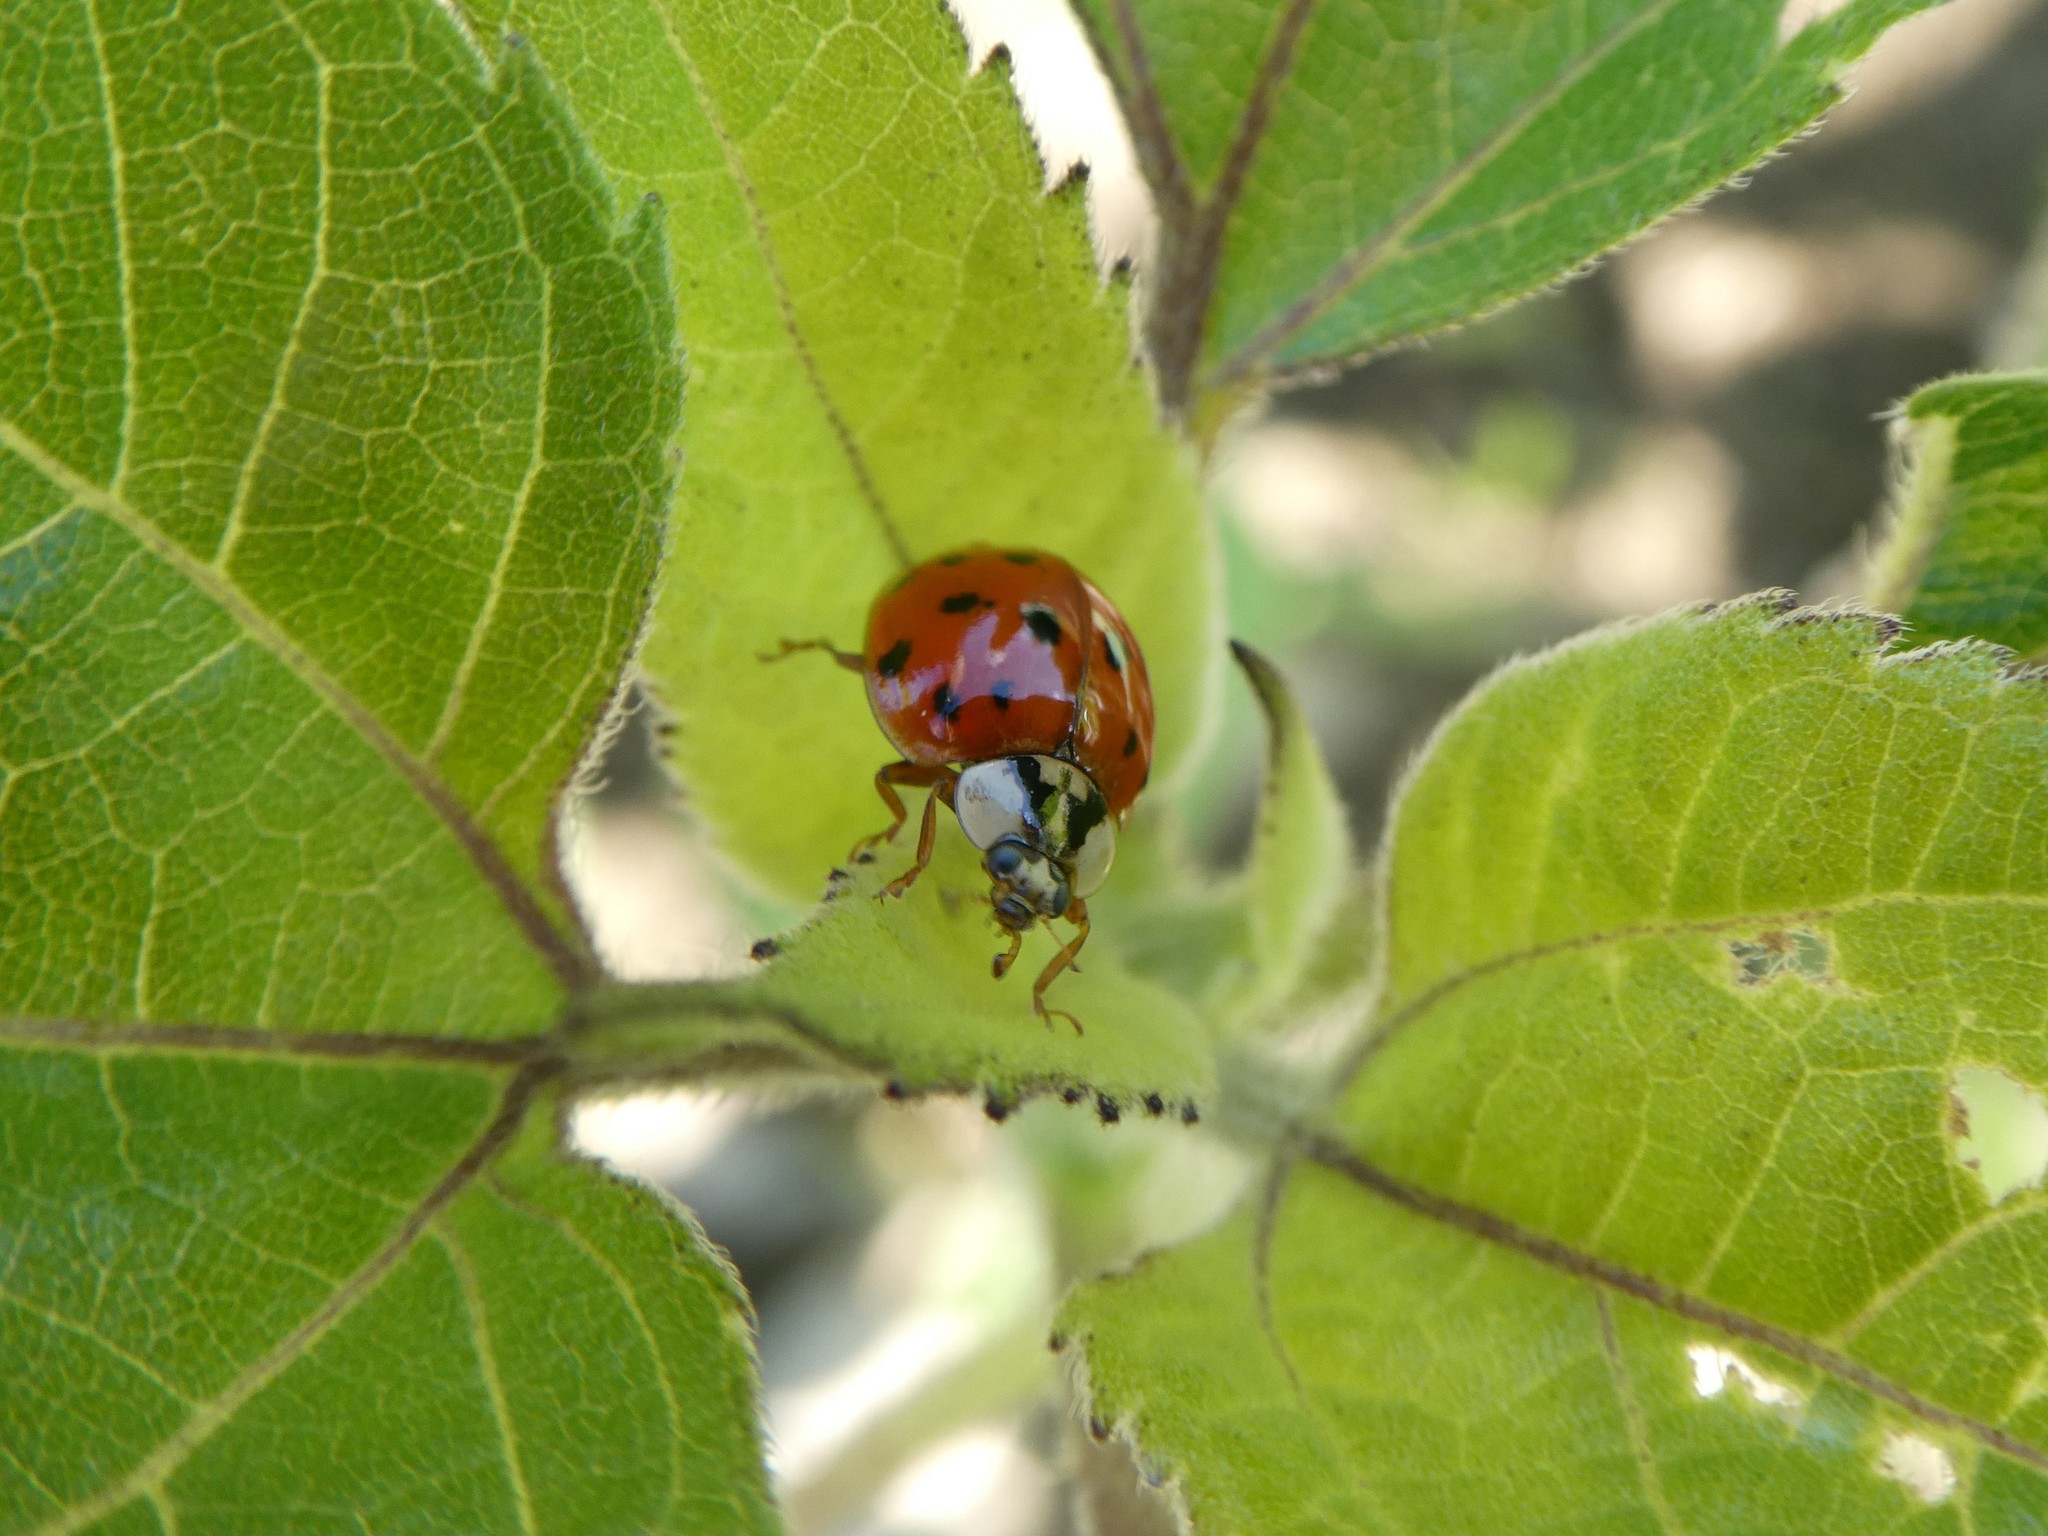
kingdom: Animalia
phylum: Arthropoda
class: Insecta
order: Coleoptera
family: Coccinellidae
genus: Harmonia
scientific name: Harmonia axyridis
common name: Harlequin ladybird
